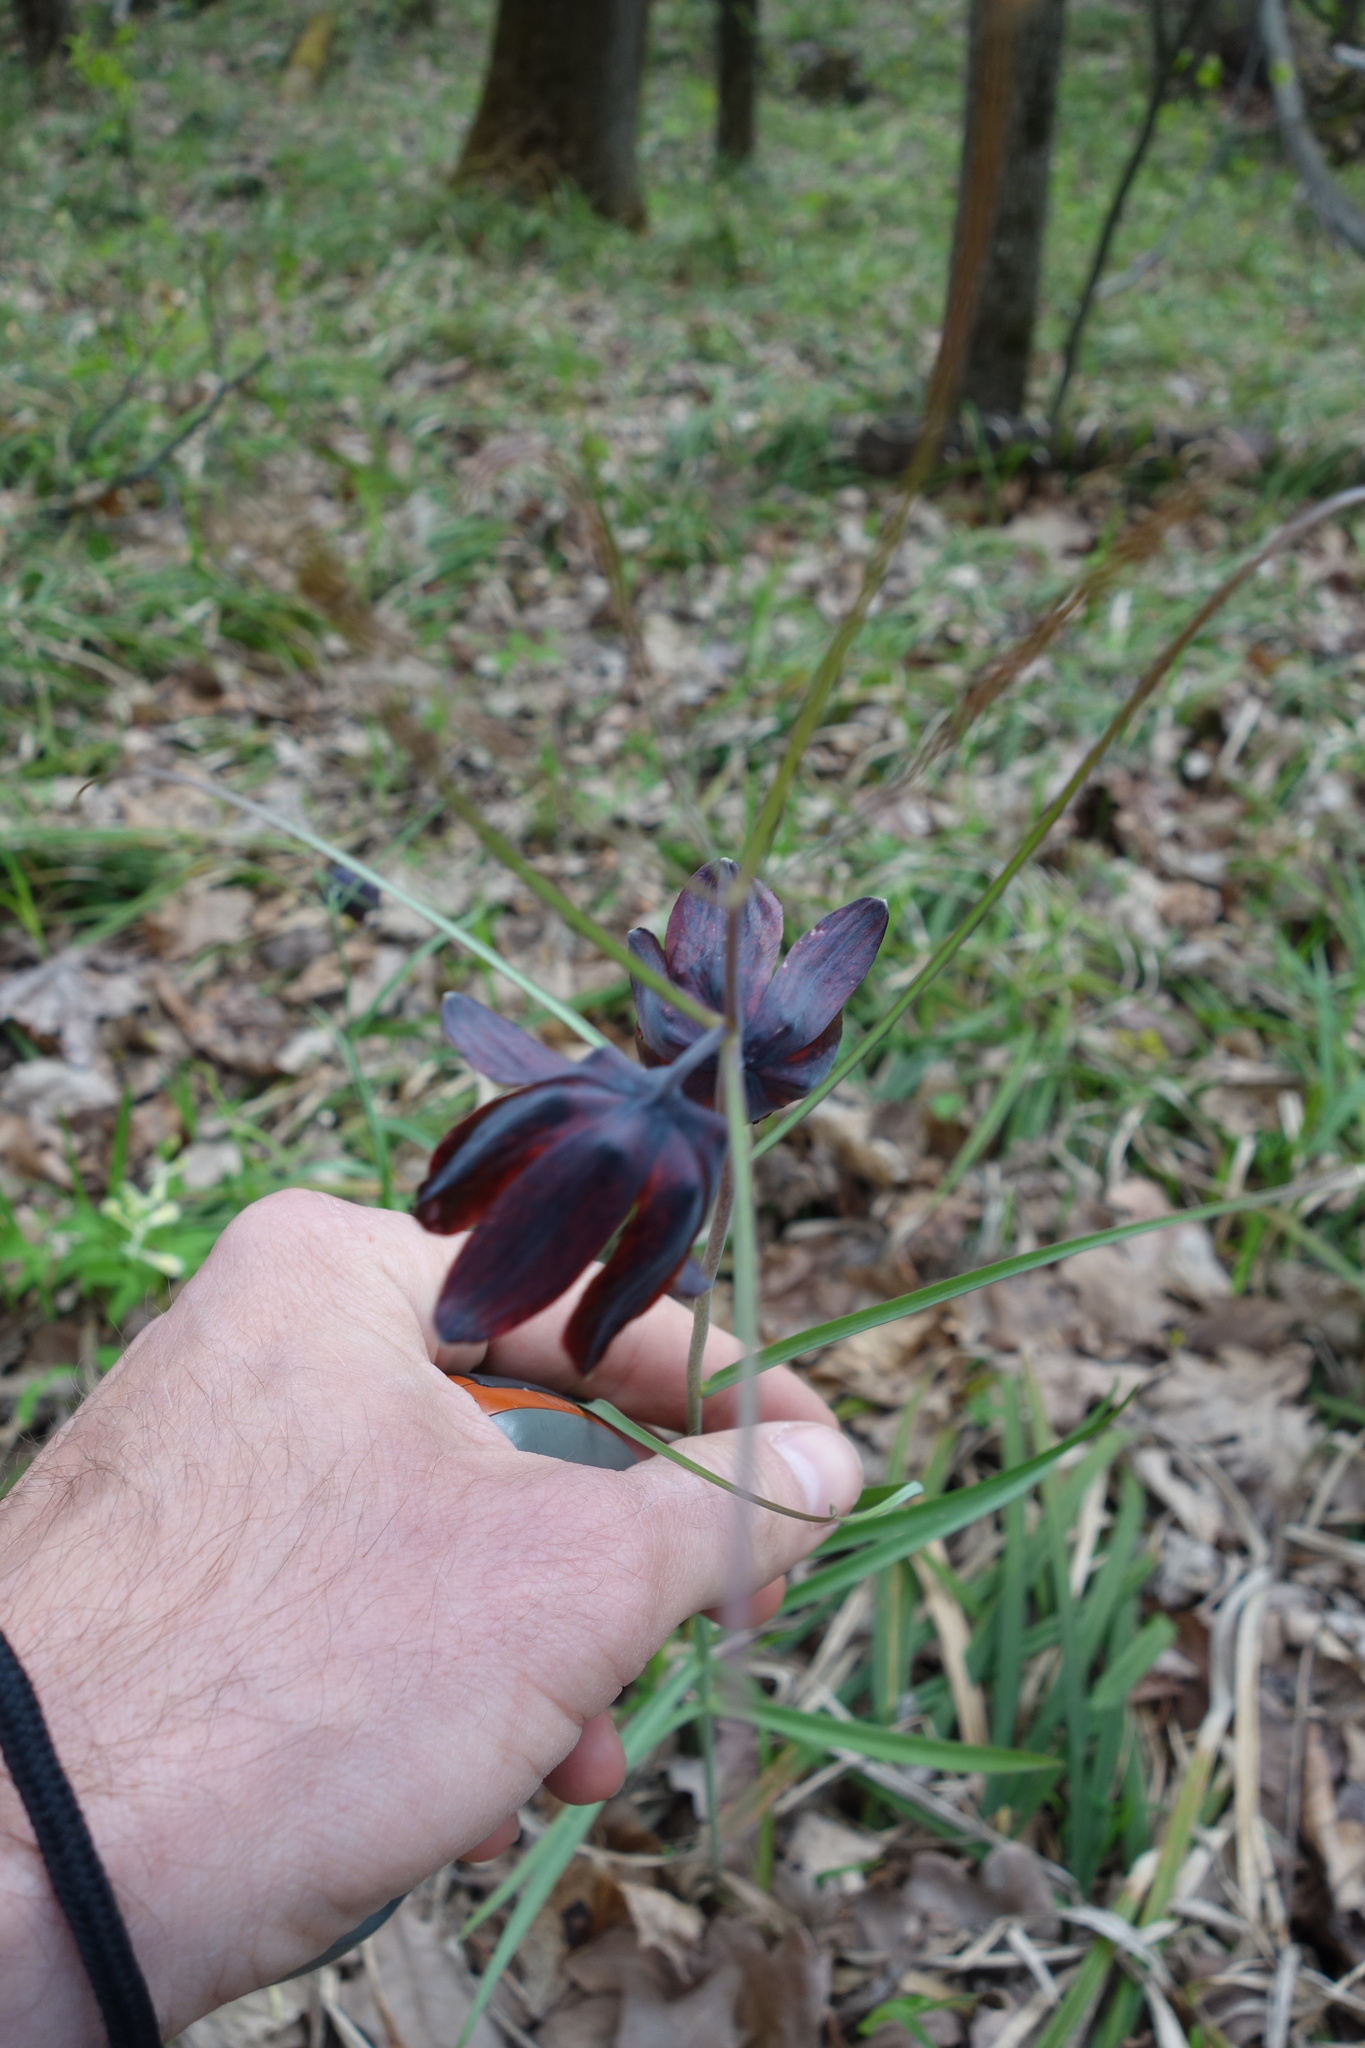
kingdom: Plantae
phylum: Tracheophyta
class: Liliopsida
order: Liliales
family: Liliaceae
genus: Fritillaria
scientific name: Fritillaria ruthenica
